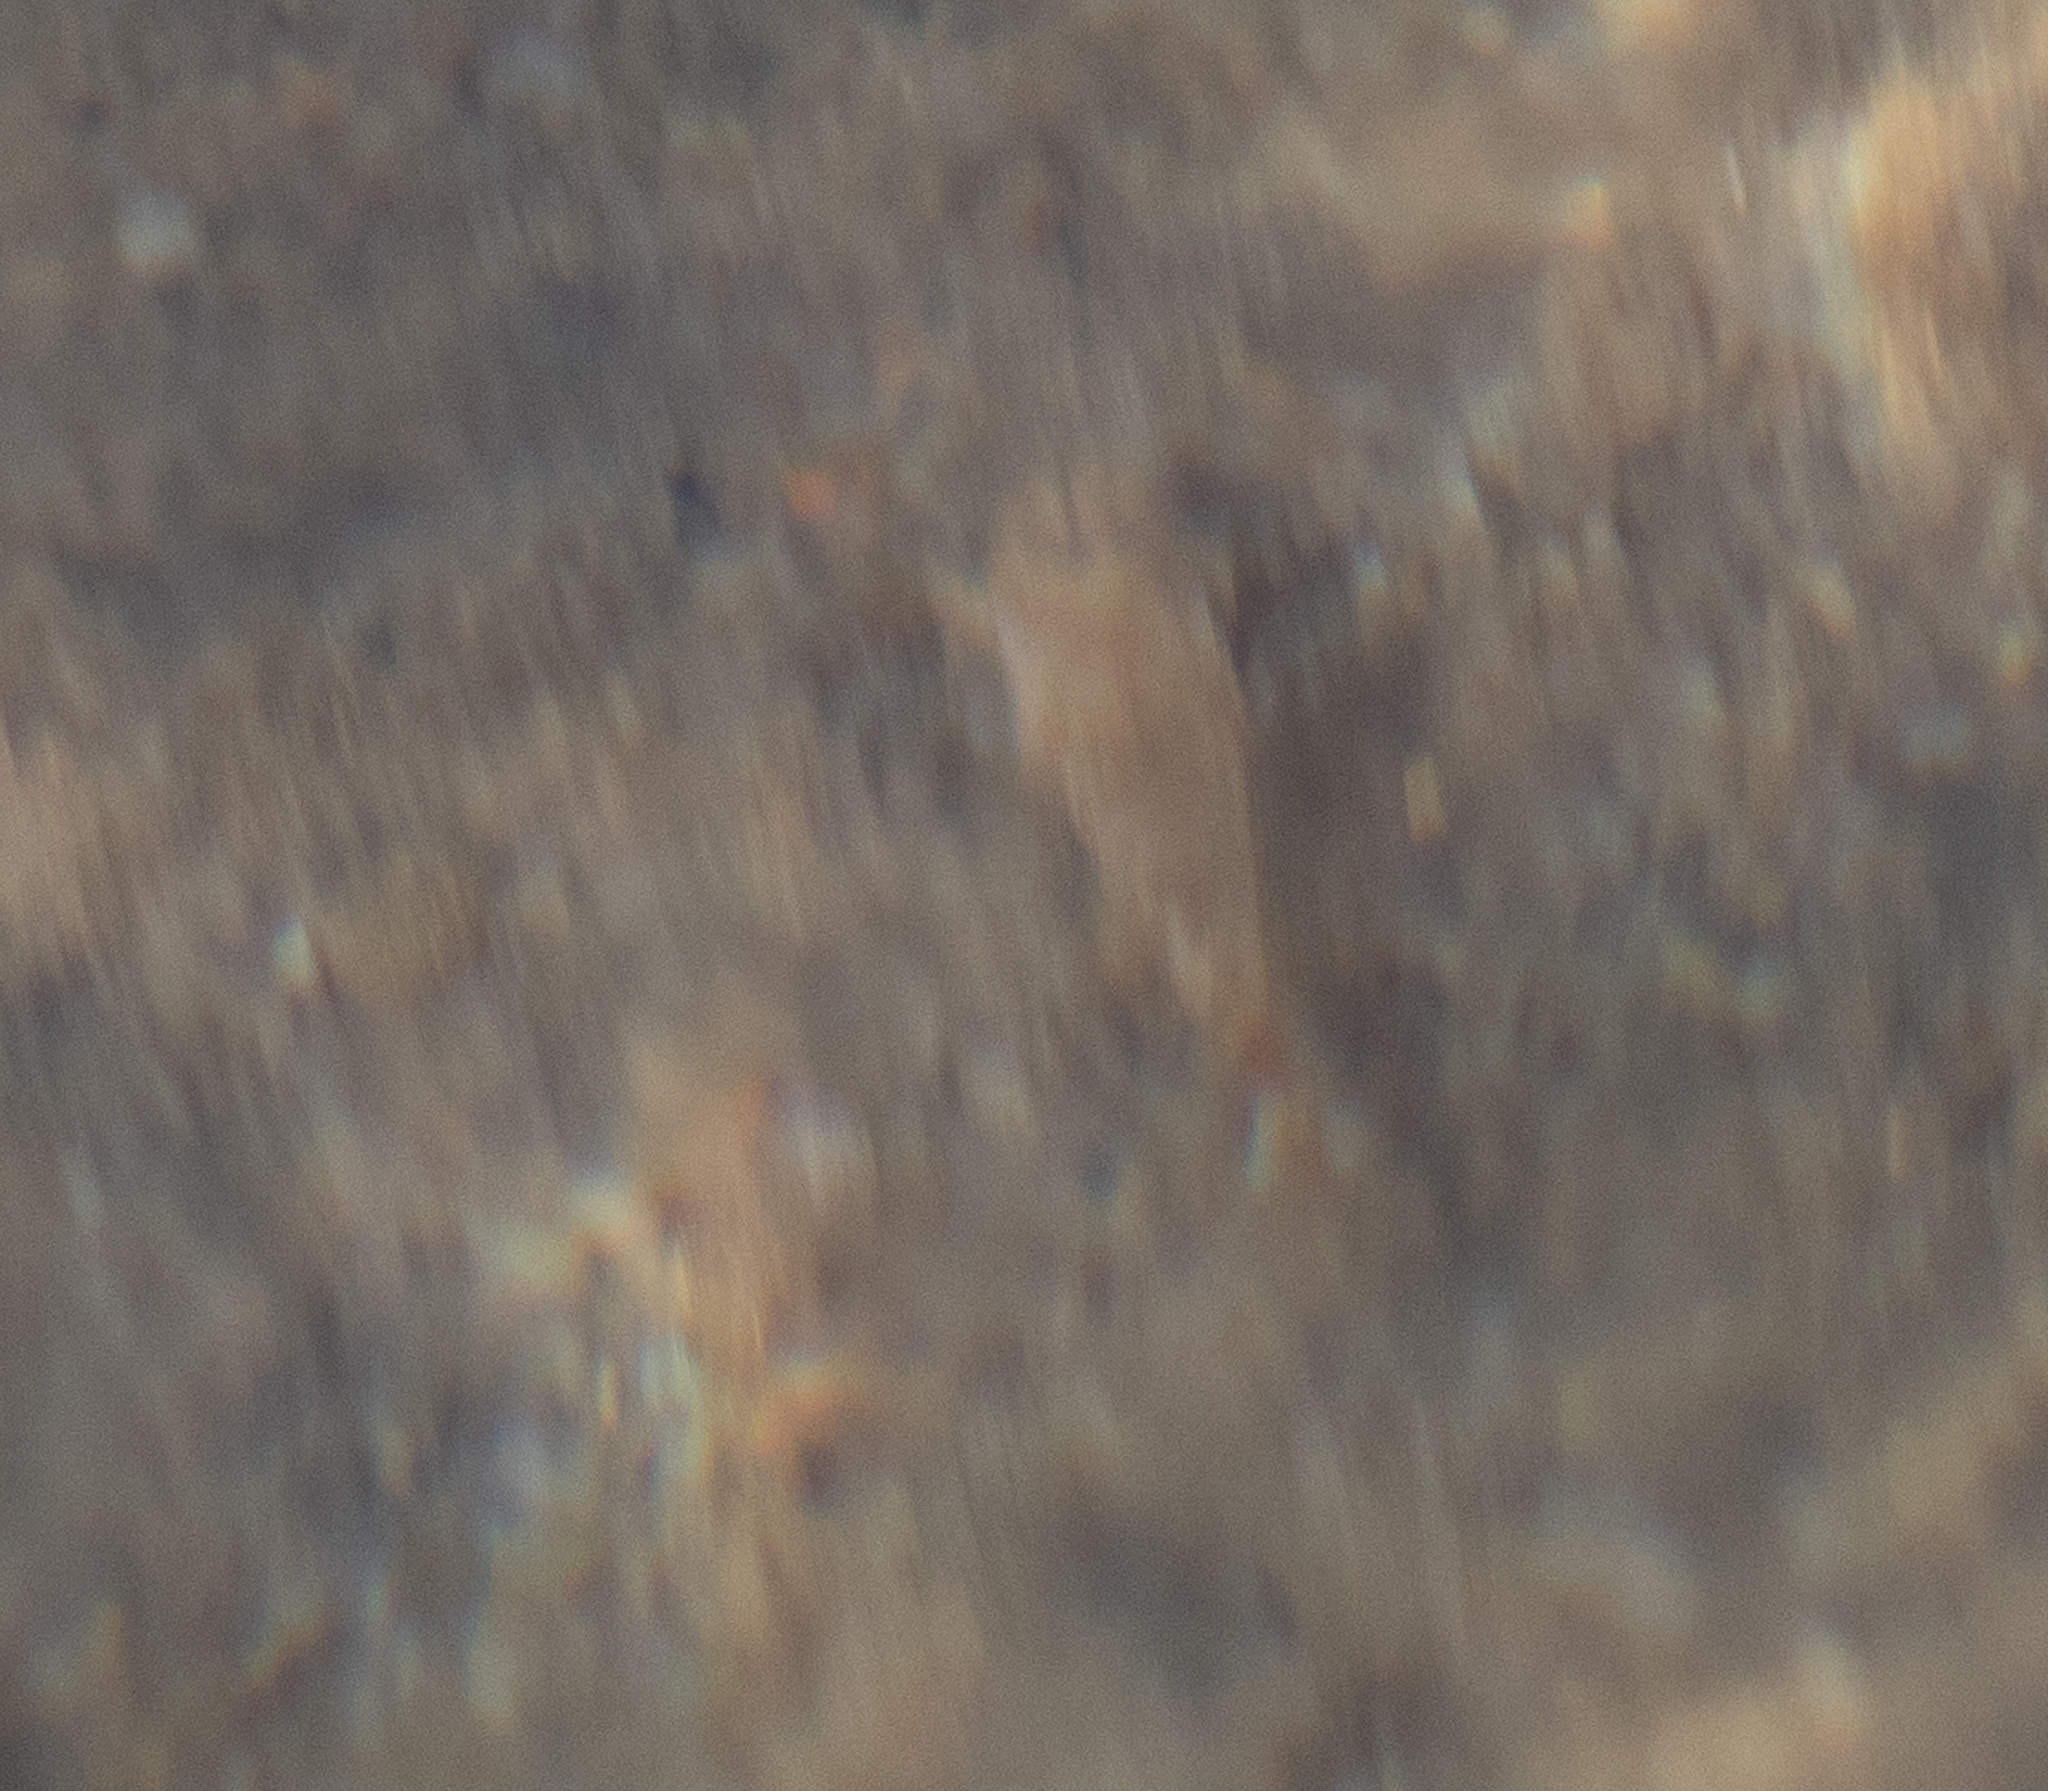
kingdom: Animalia
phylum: Arthropoda
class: Malacostraca
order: Decapoda
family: Crangonidae
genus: Crangon
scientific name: Crangon septemspinosa
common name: Bail shrimp
